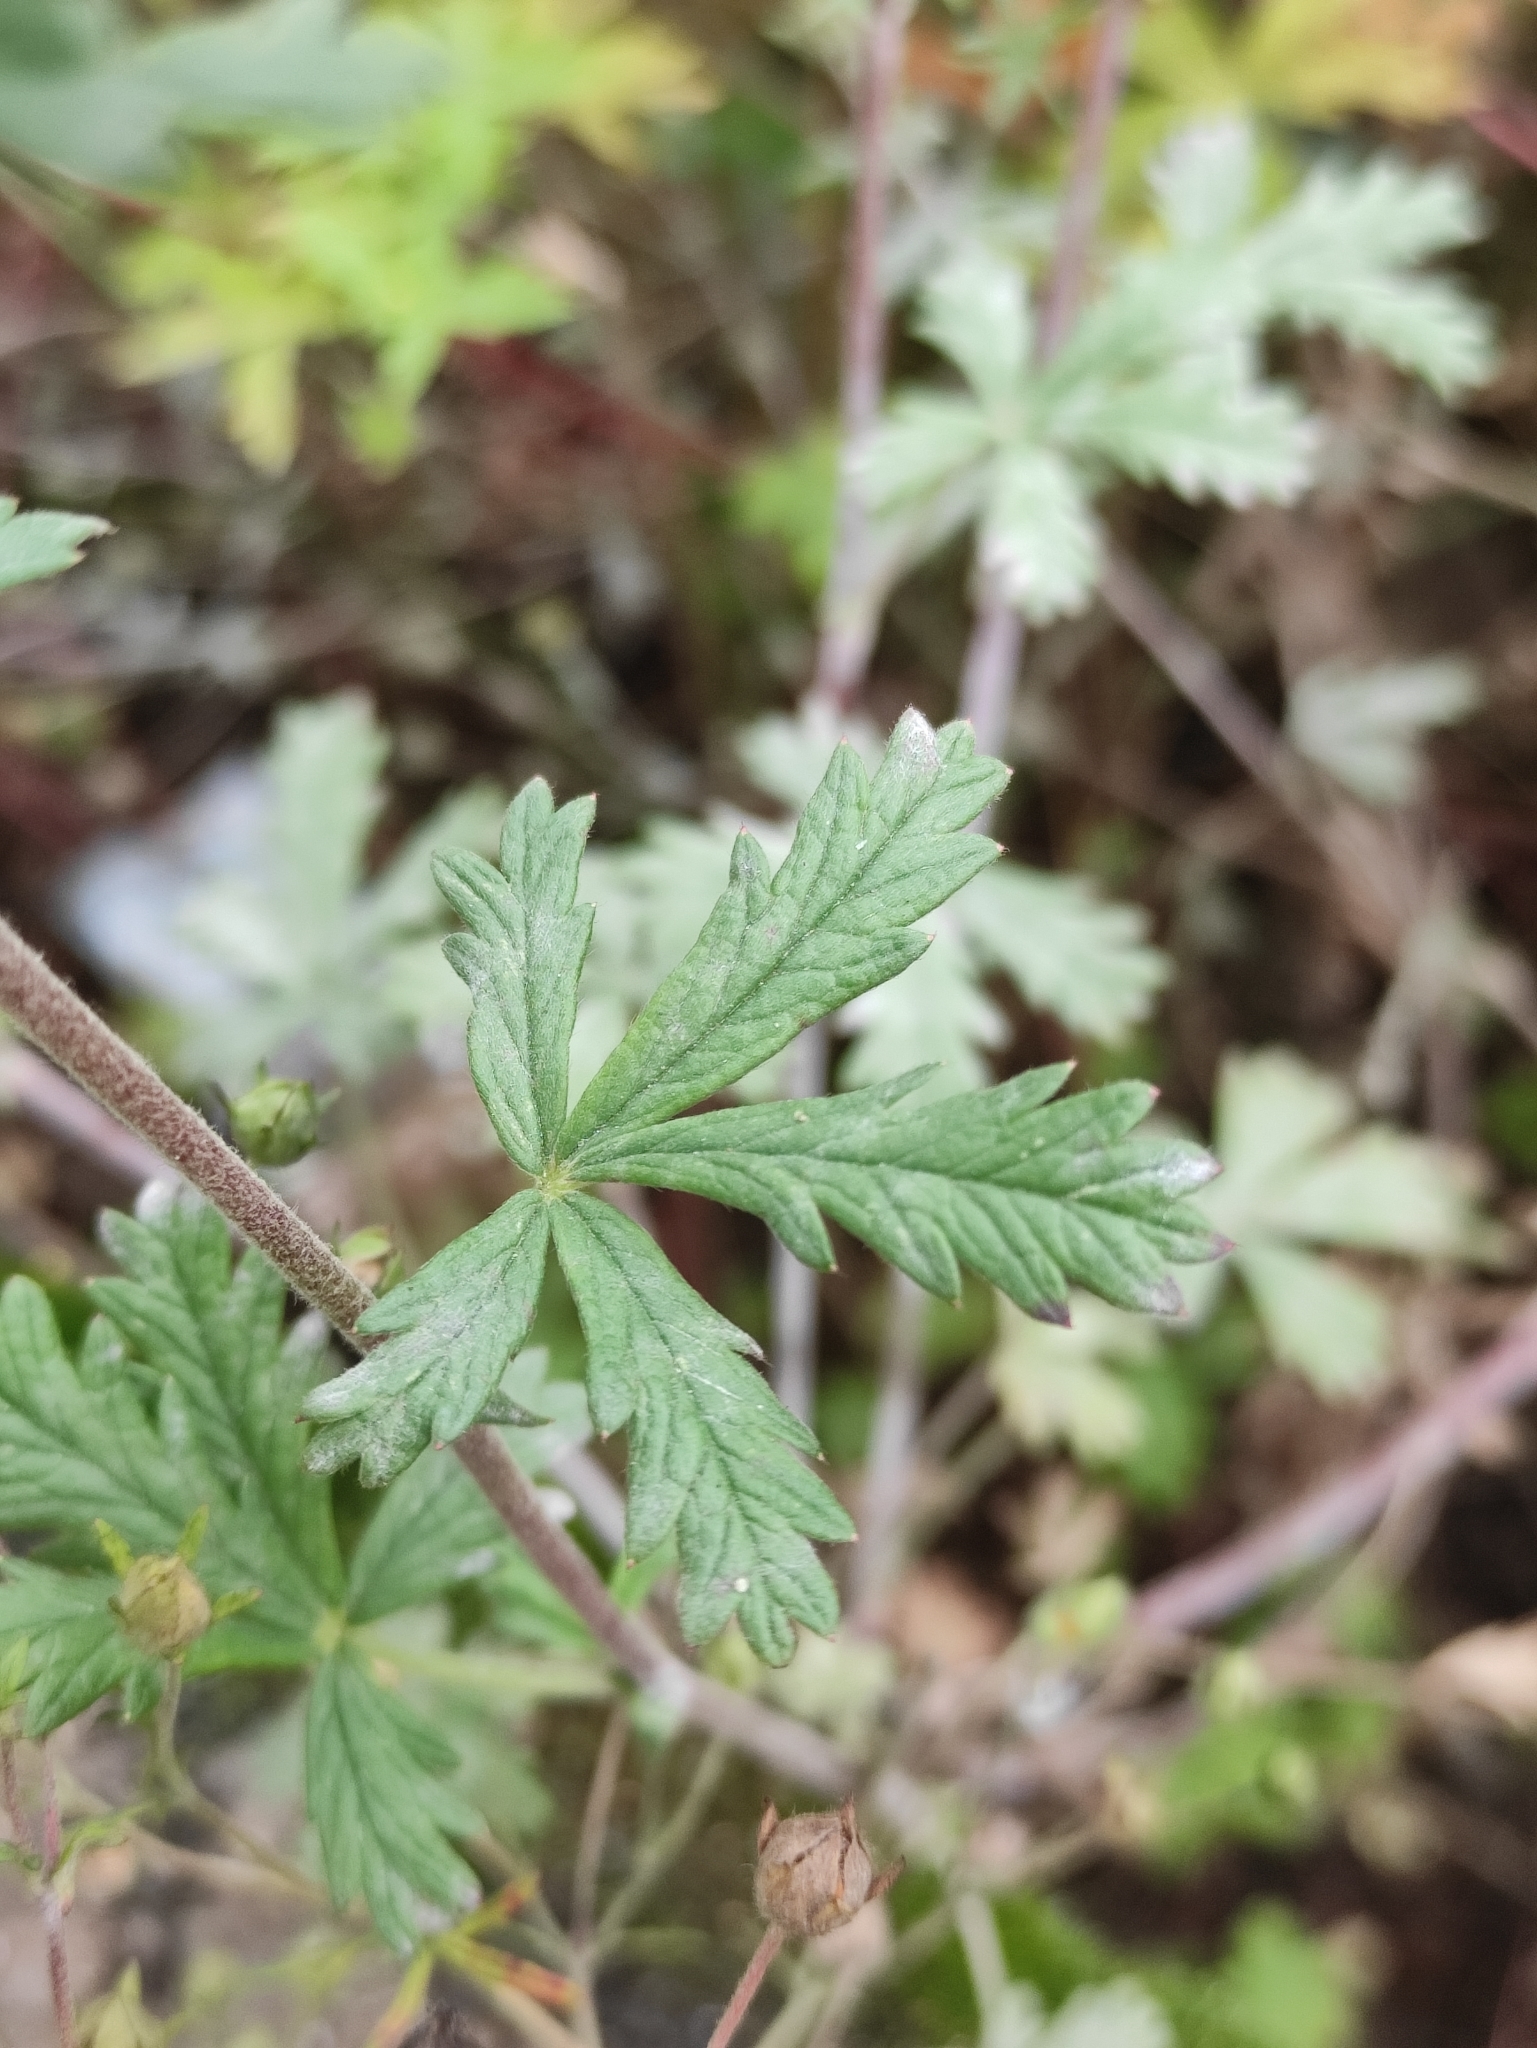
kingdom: Plantae
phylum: Tracheophyta
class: Magnoliopsida
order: Rosales
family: Rosaceae
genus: Potentilla
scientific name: Potentilla argentea
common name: Hoary cinquefoil
